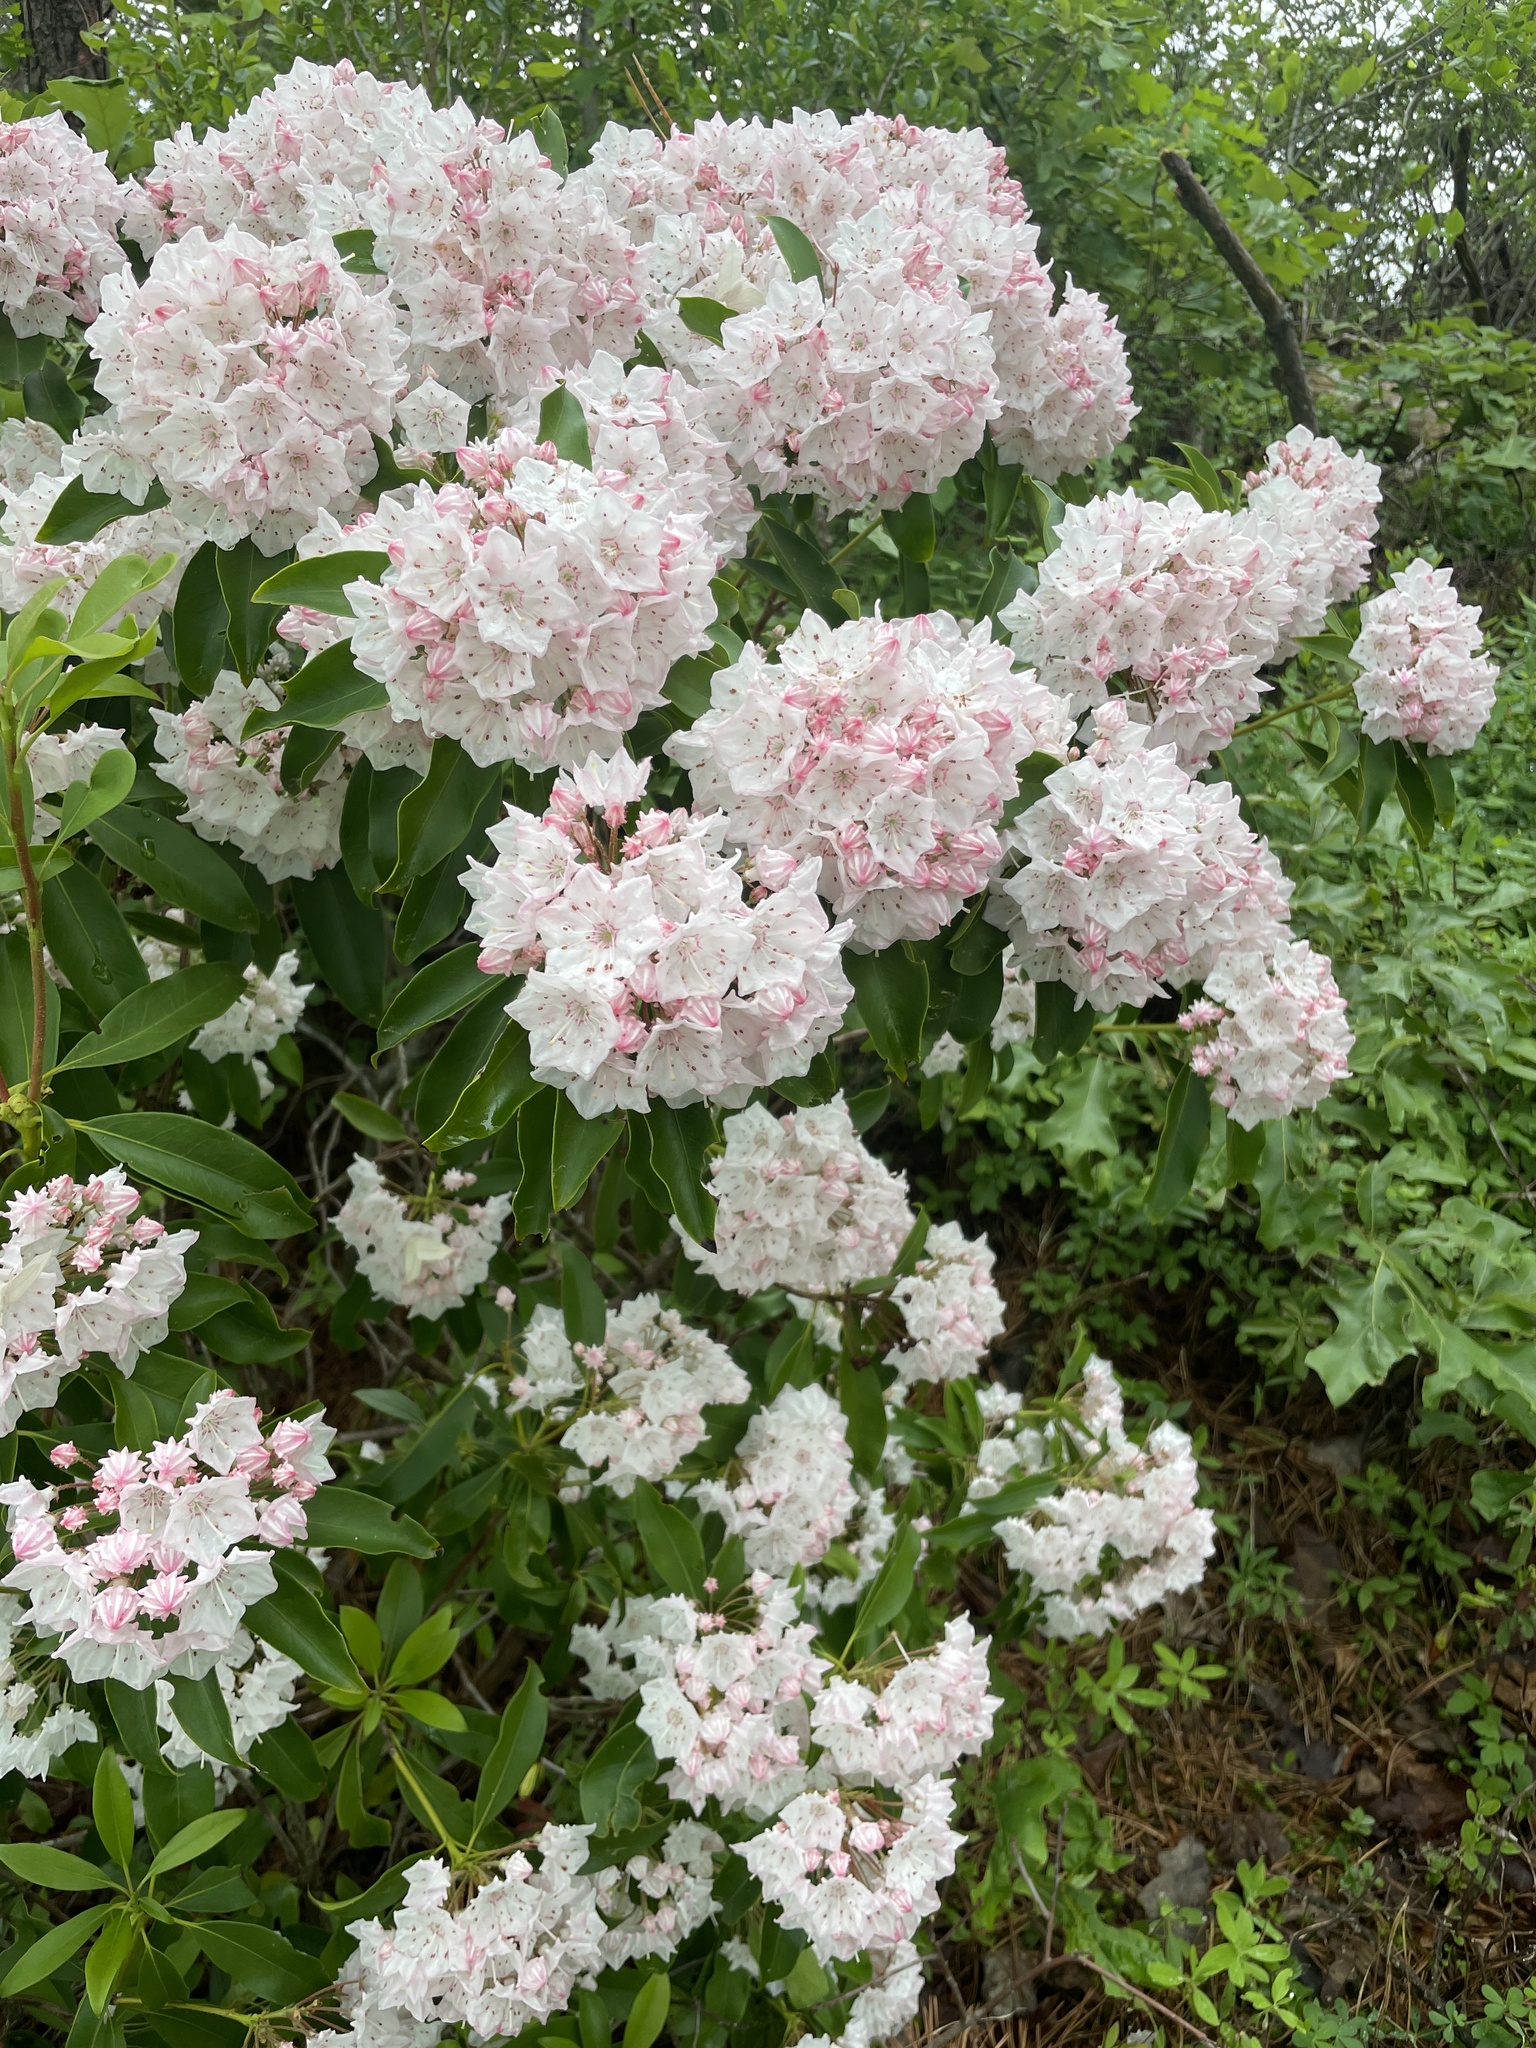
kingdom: Plantae
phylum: Tracheophyta
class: Magnoliopsida
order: Ericales
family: Ericaceae
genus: Kalmia
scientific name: Kalmia latifolia
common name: Mountain-laurel
